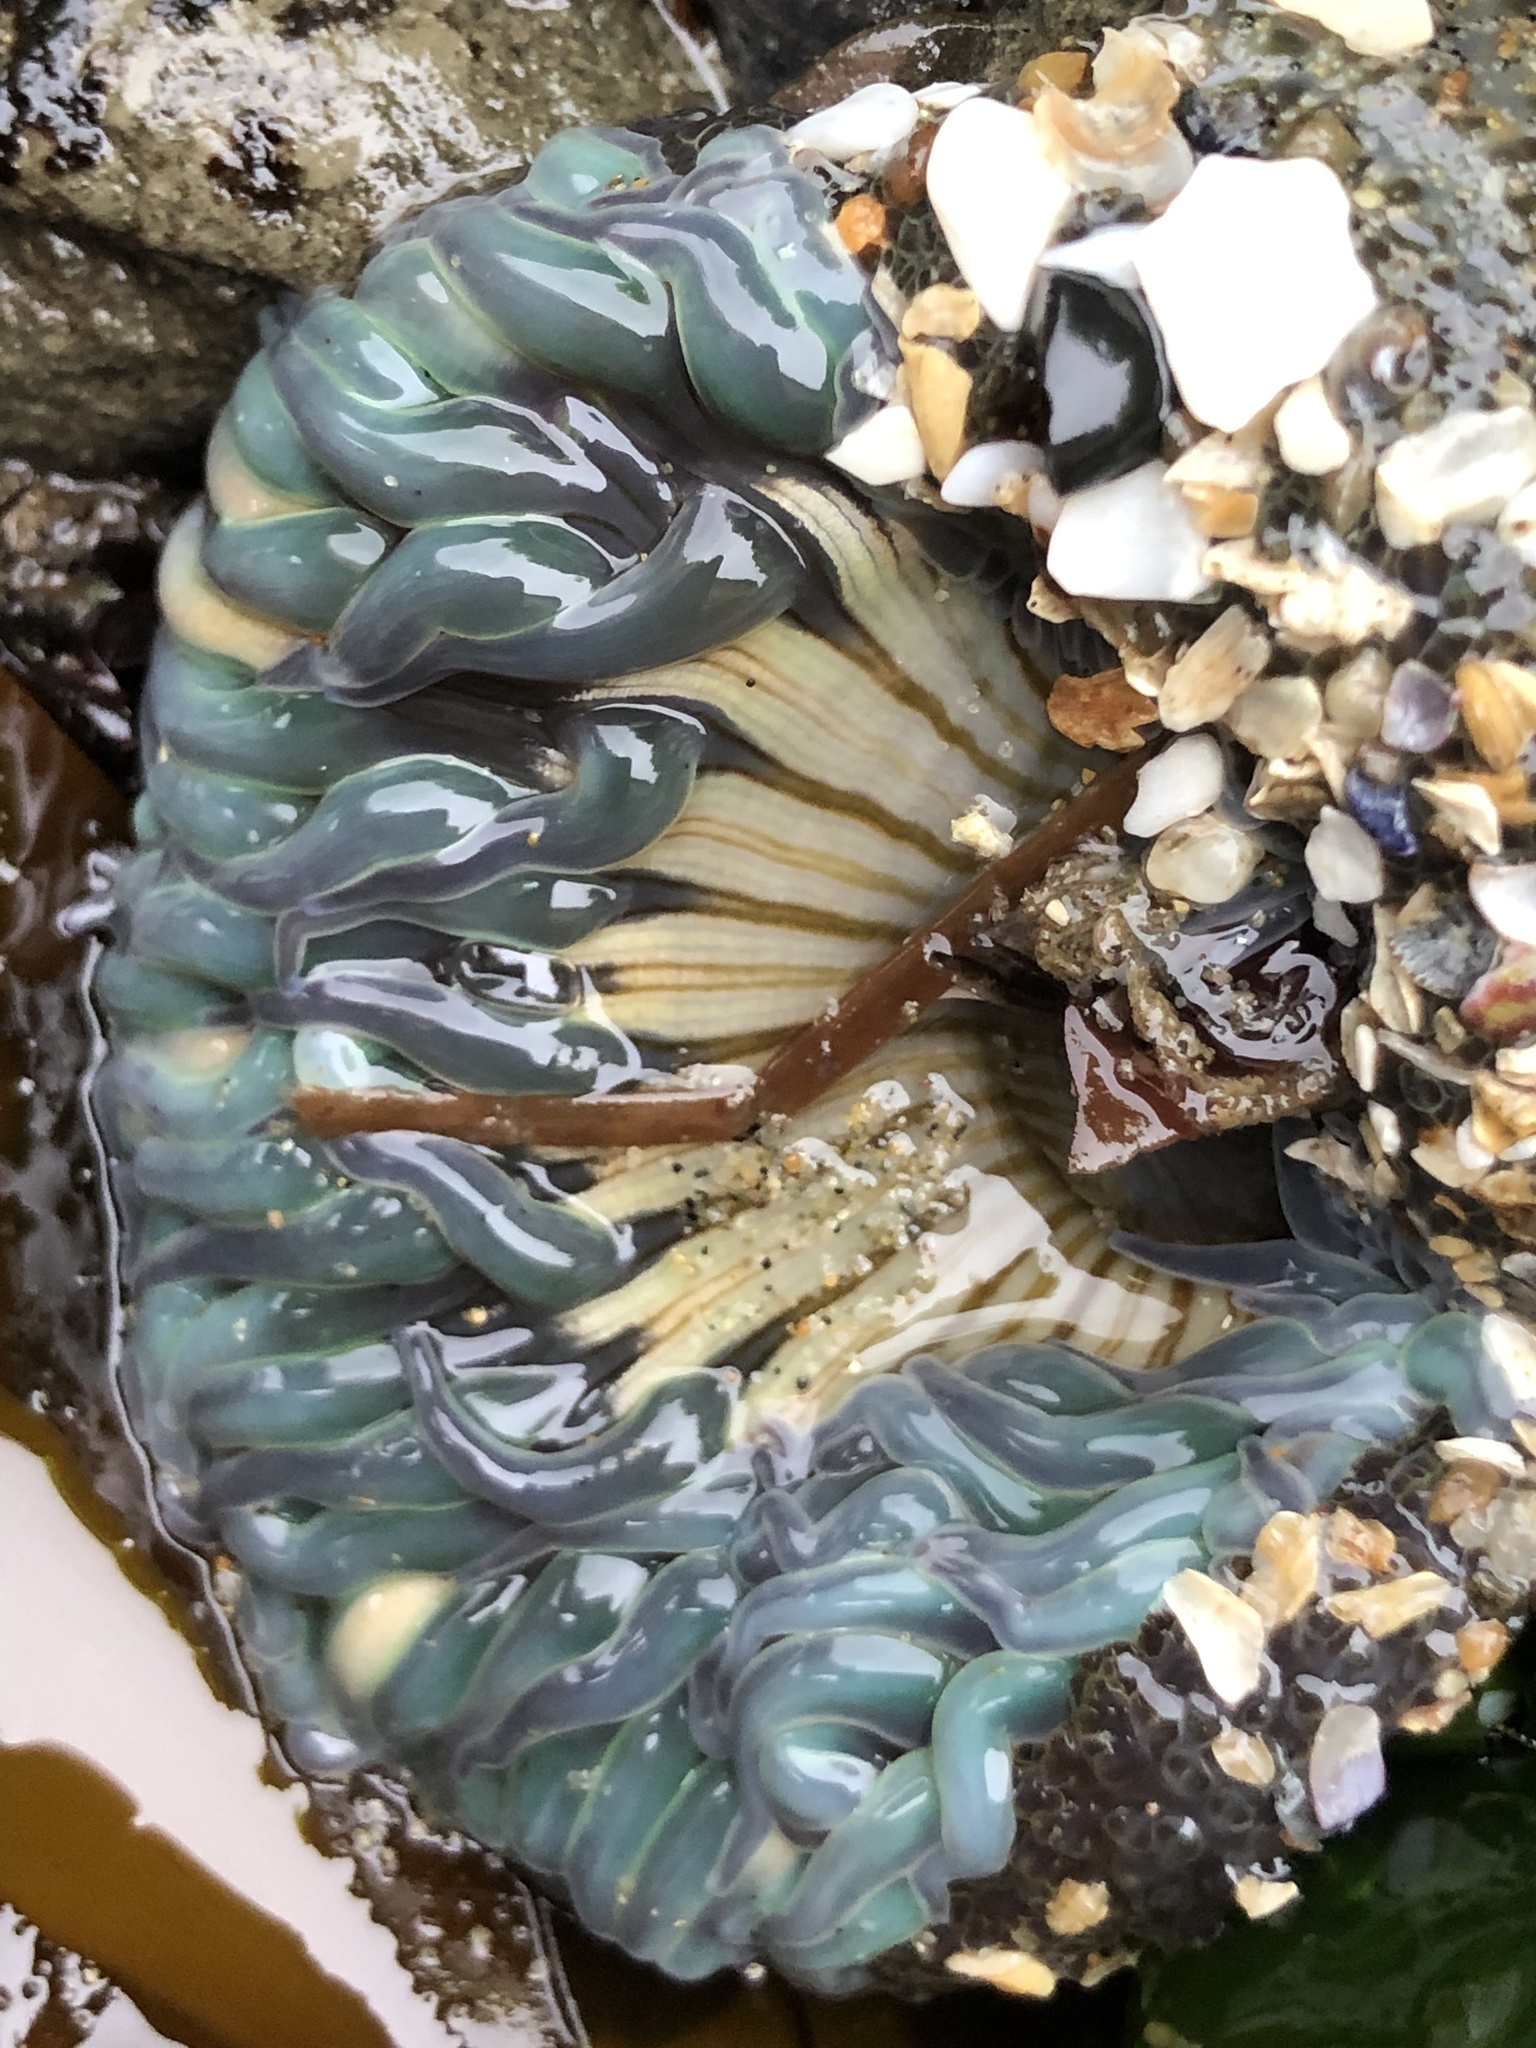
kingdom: Animalia
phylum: Cnidaria
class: Anthozoa
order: Actiniaria
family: Actiniidae
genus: Anthopleura
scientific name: Anthopleura sola
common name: Sun anemone
